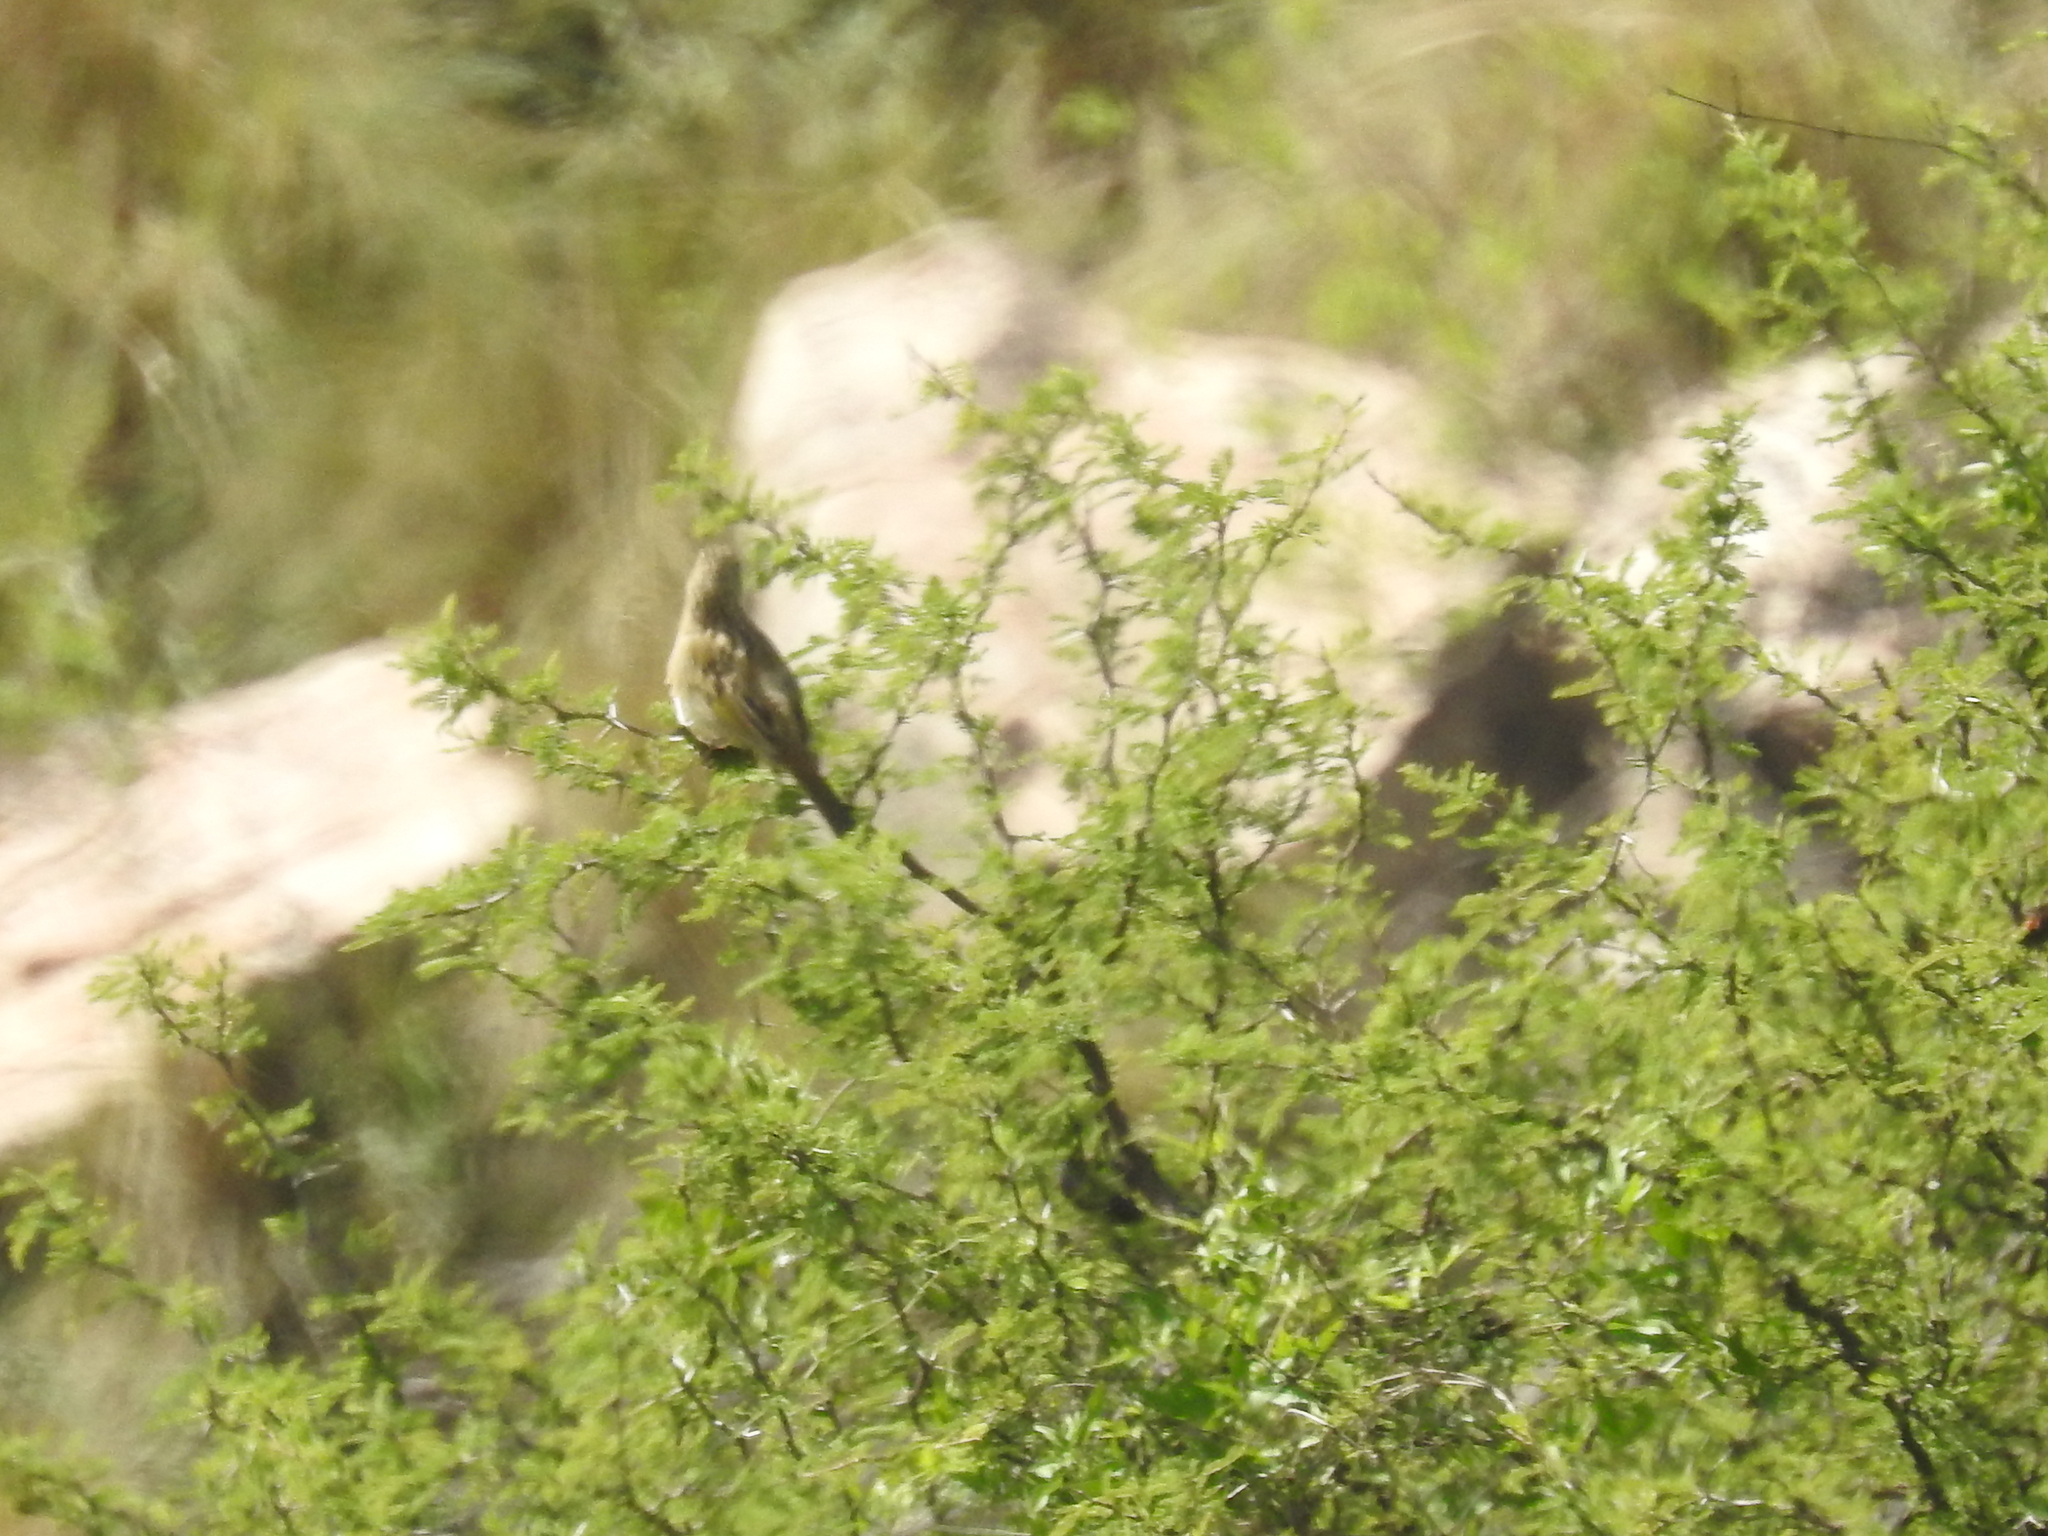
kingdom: Animalia
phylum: Chordata
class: Aves
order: Passeriformes
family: Thraupidae
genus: Embernagra
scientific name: Embernagra platensis
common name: Pampa finch
